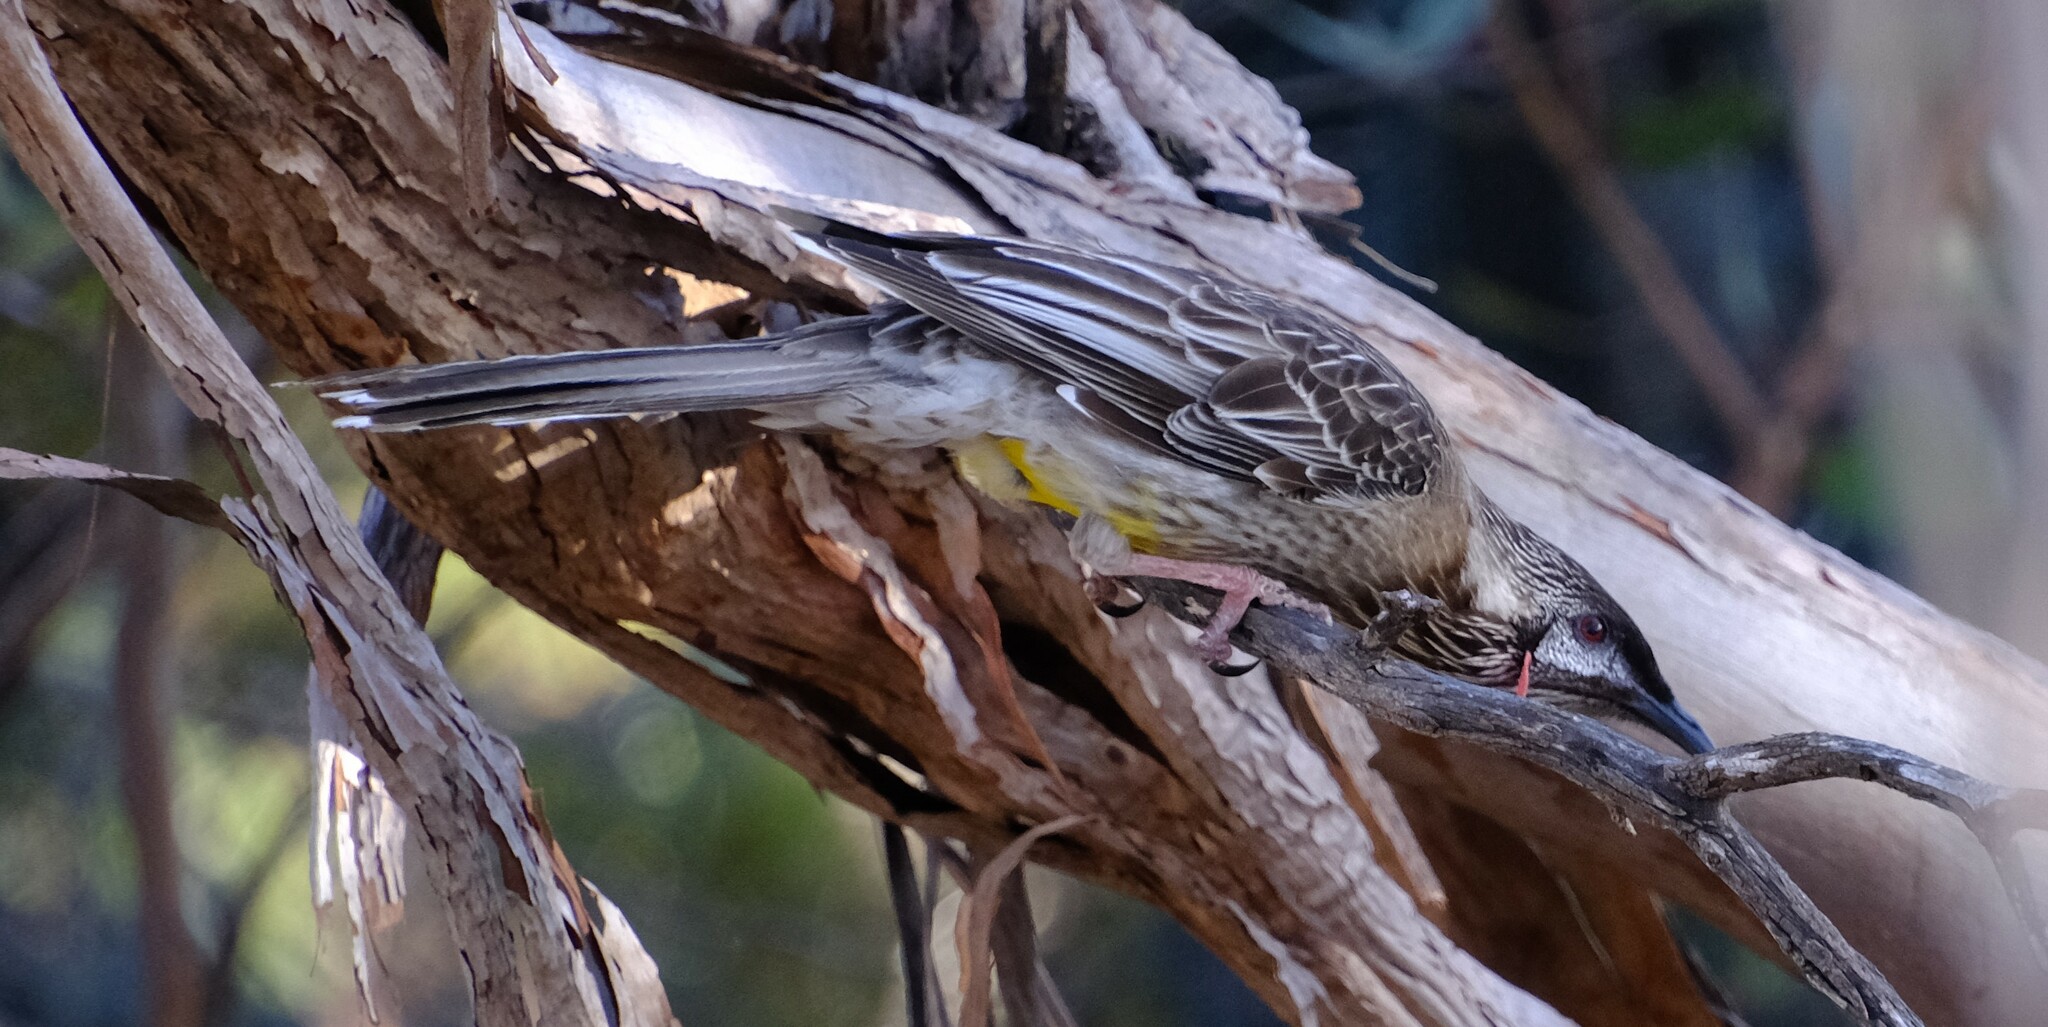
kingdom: Animalia
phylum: Chordata
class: Aves
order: Passeriformes
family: Meliphagidae
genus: Anthochaera
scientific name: Anthochaera carunculata
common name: Red wattlebird
